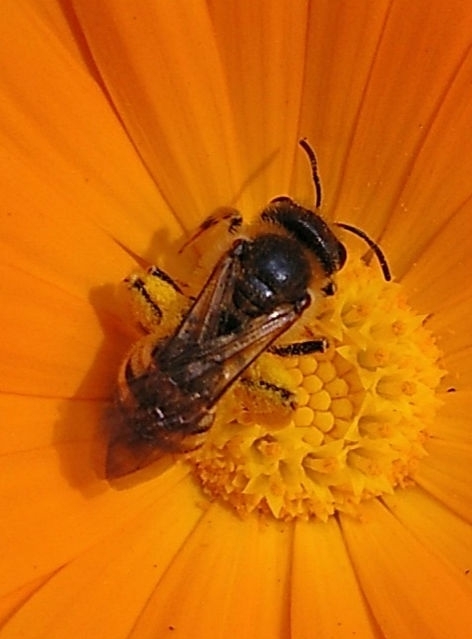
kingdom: Animalia
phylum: Arthropoda
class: Insecta
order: Hymenoptera
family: Halictidae
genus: Halictus
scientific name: Halictus scabiosae
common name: Great banded furrow bee
